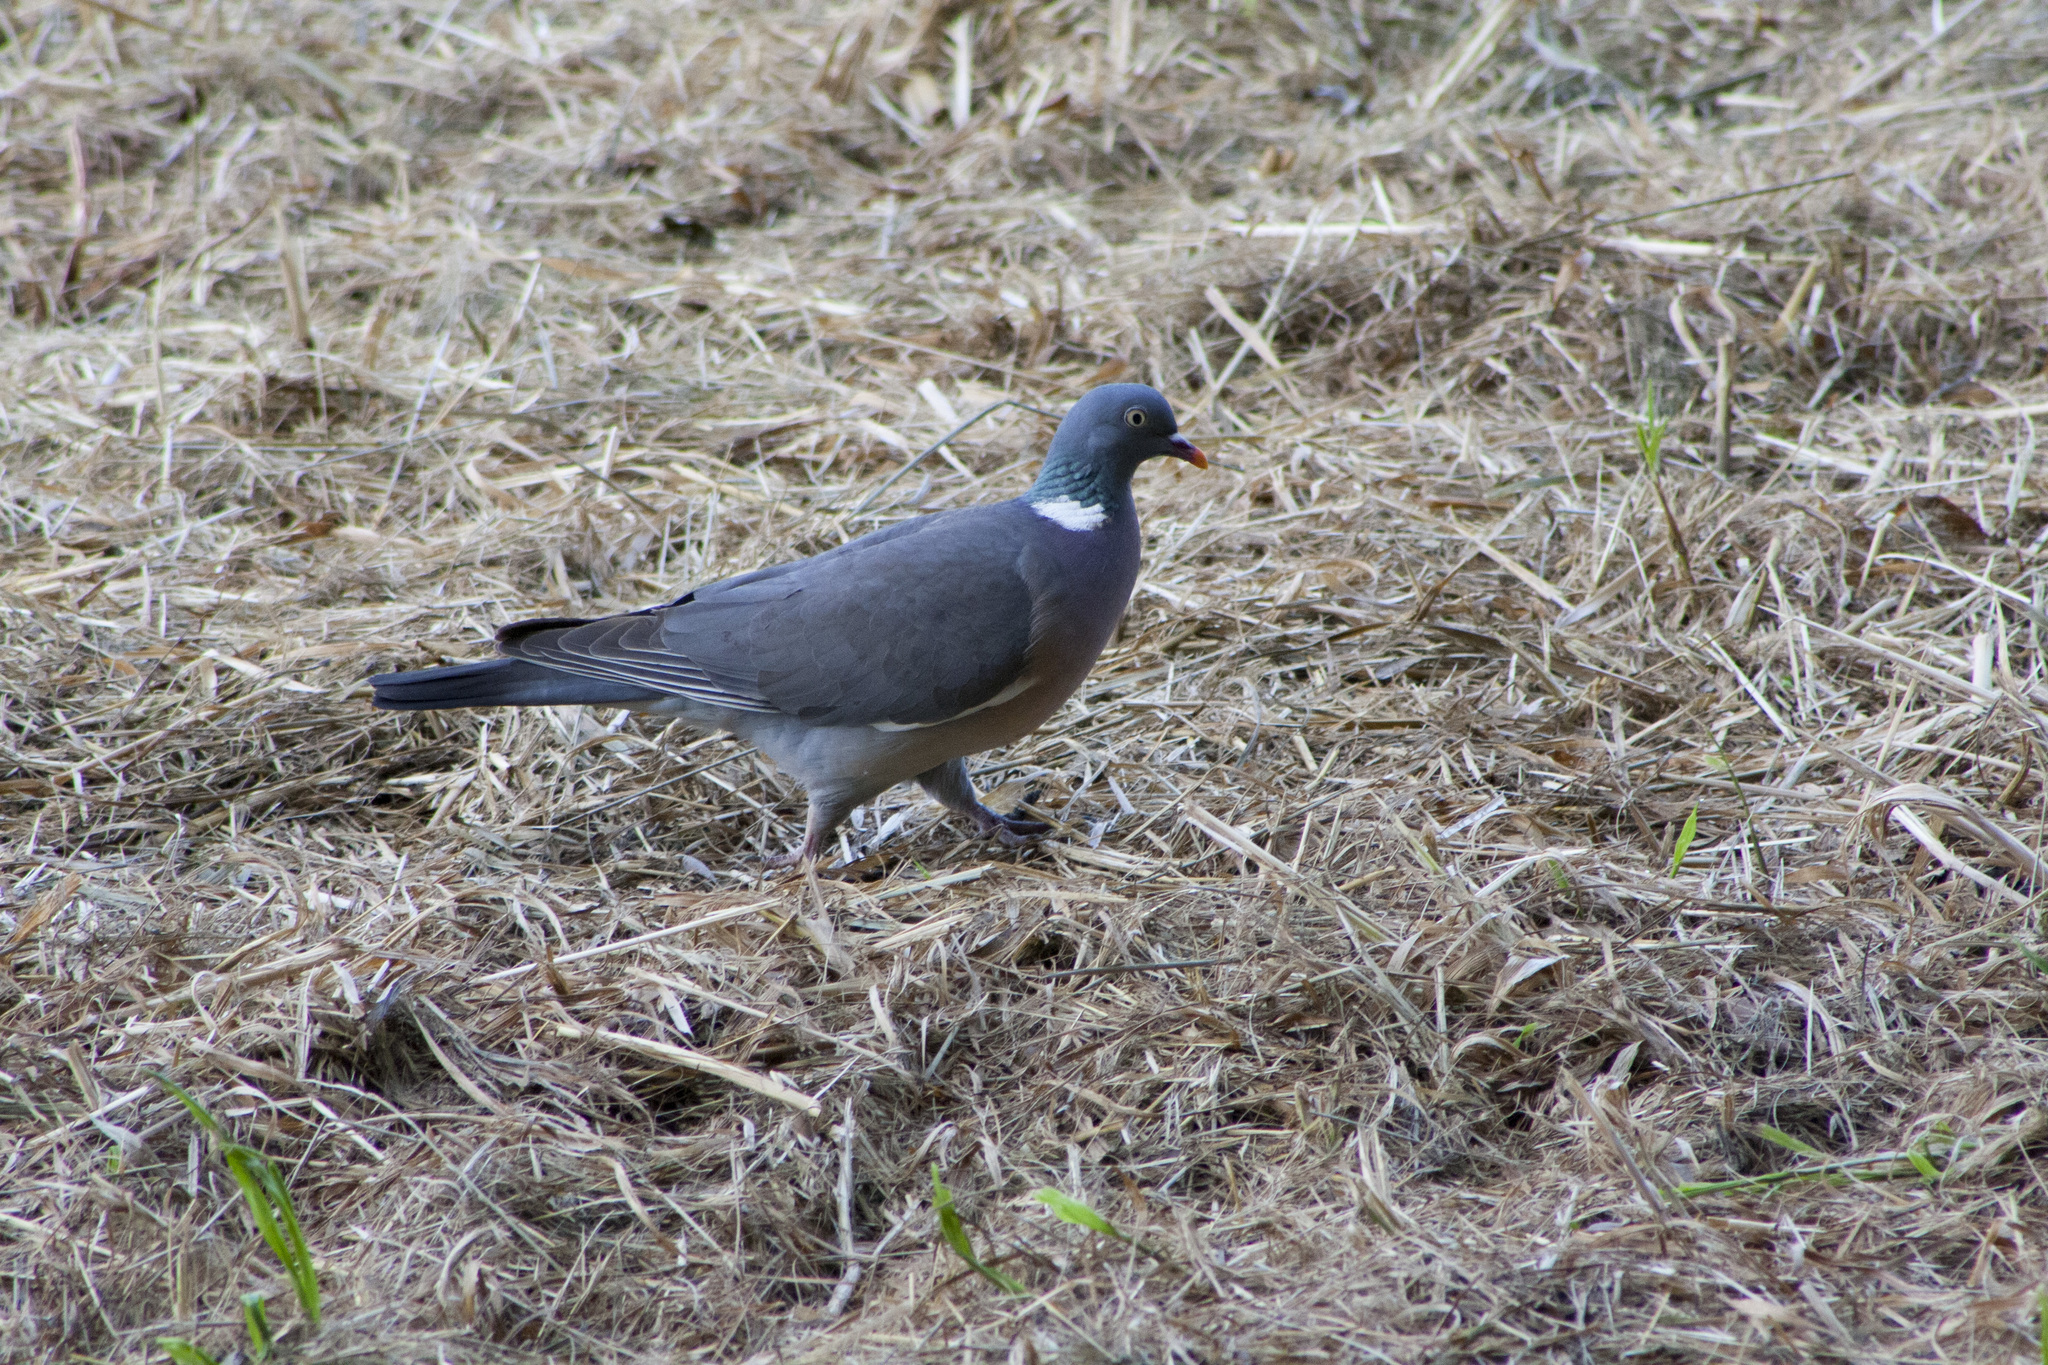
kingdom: Animalia
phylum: Chordata
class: Aves
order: Columbiformes
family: Columbidae
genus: Columba
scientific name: Columba palumbus
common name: Common wood pigeon
